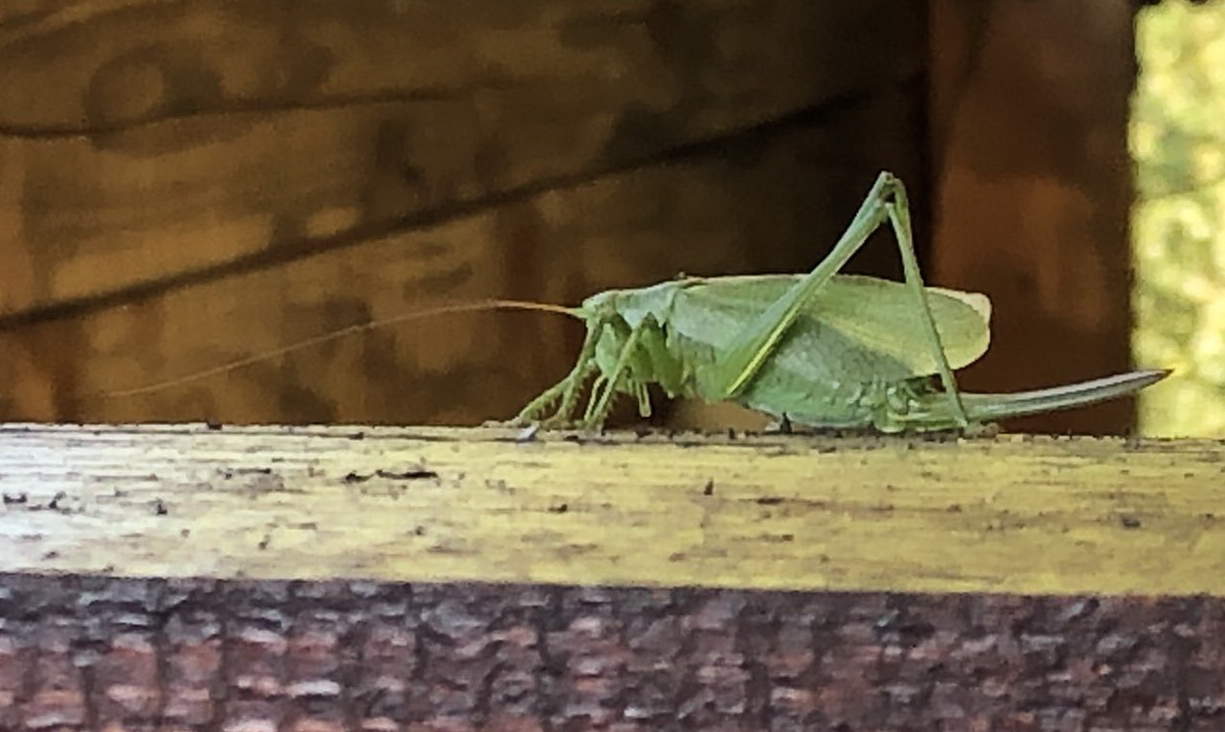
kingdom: Animalia
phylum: Arthropoda
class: Insecta
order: Orthoptera
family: Tettigoniidae
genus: Tettigonia
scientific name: Tettigonia cantans
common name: Upland green bush-cricket
